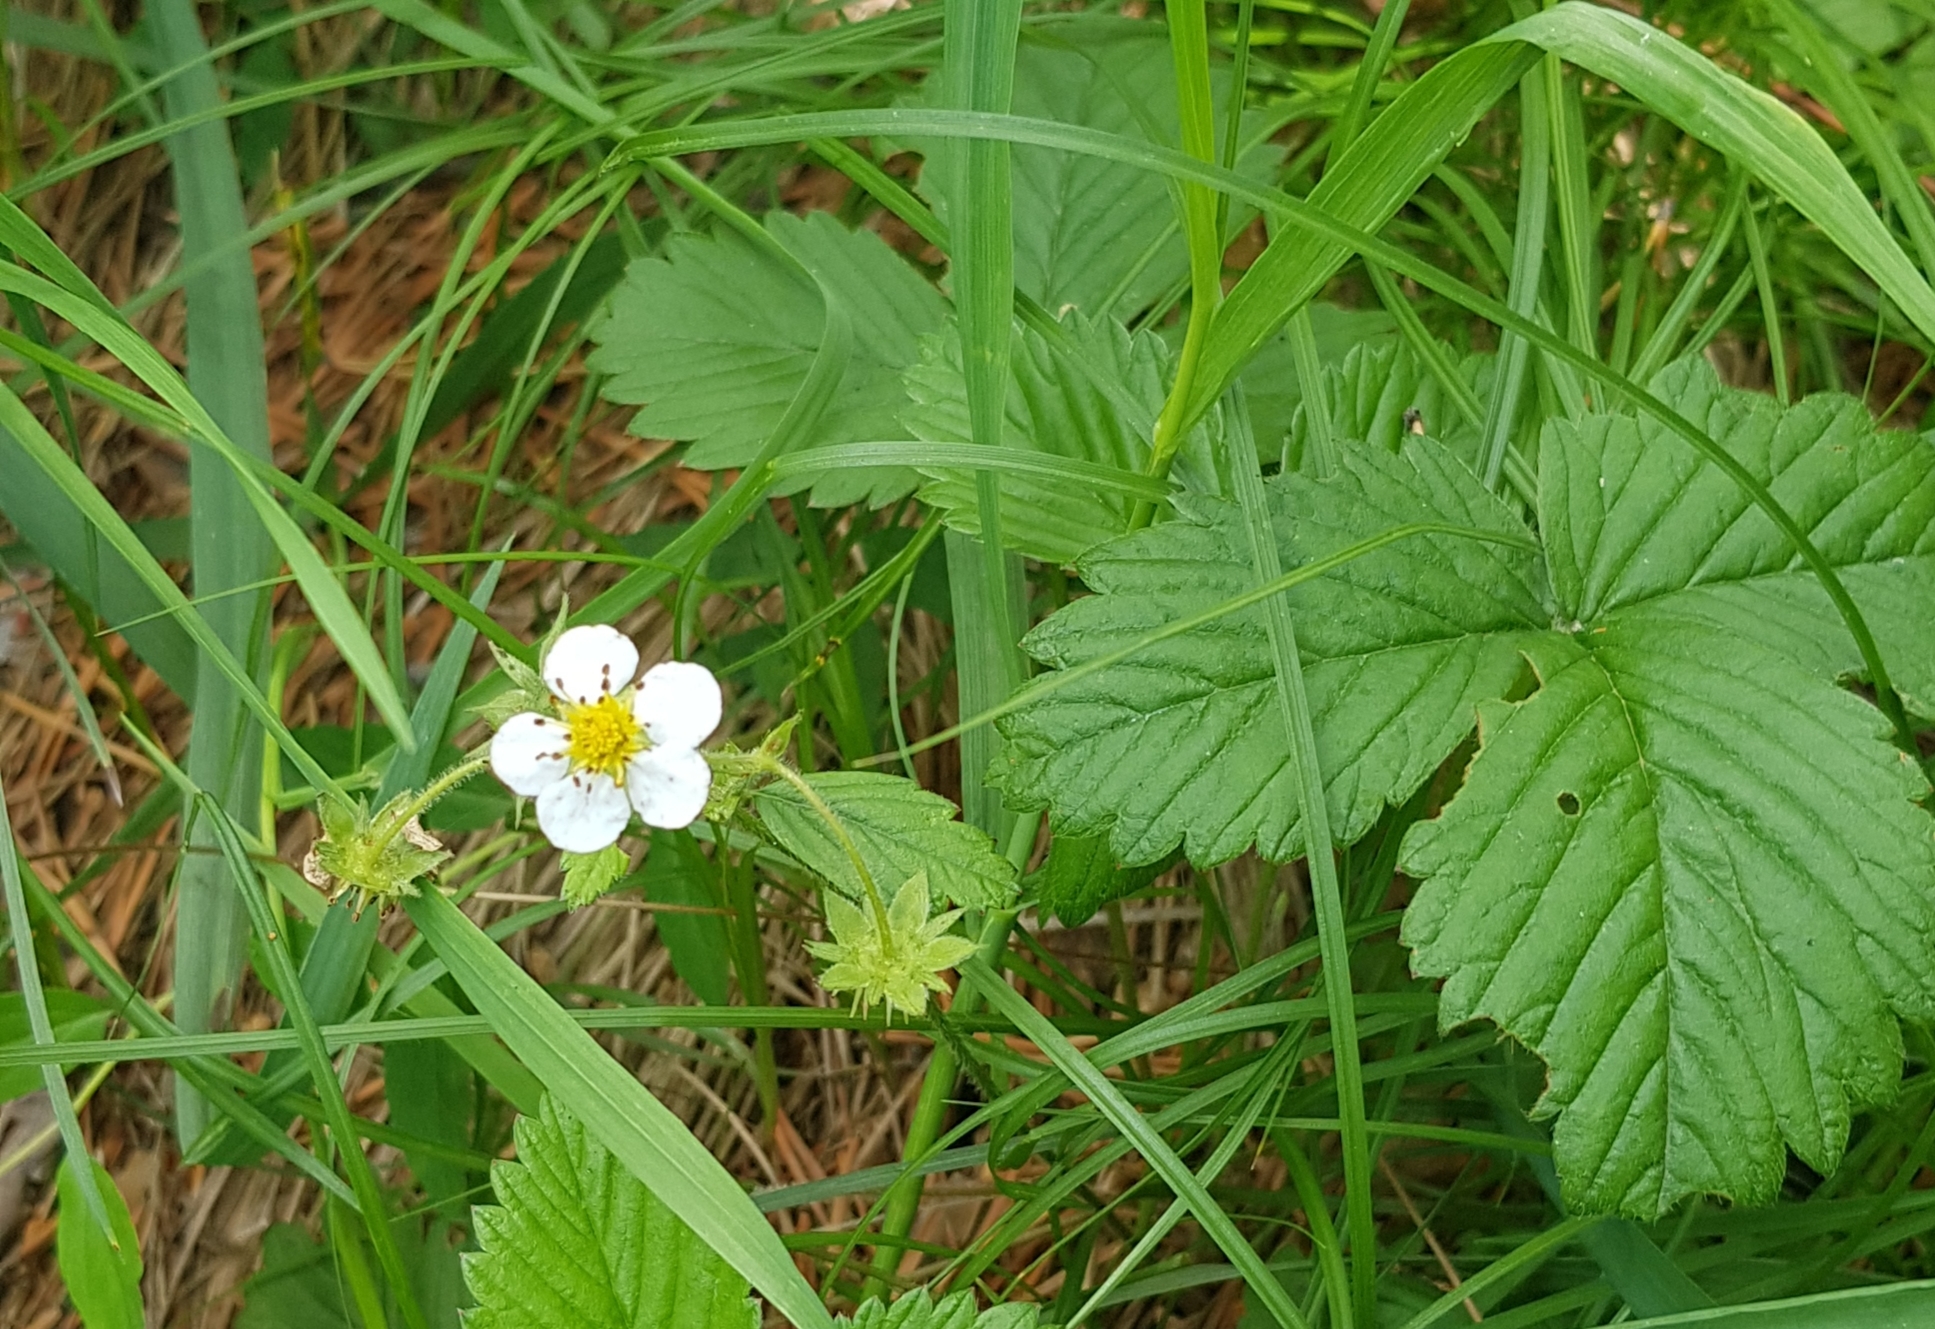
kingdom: Plantae
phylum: Tracheophyta
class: Magnoliopsida
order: Rosales
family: Rosaceae
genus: Fragaria
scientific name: Fragaria orientalis
